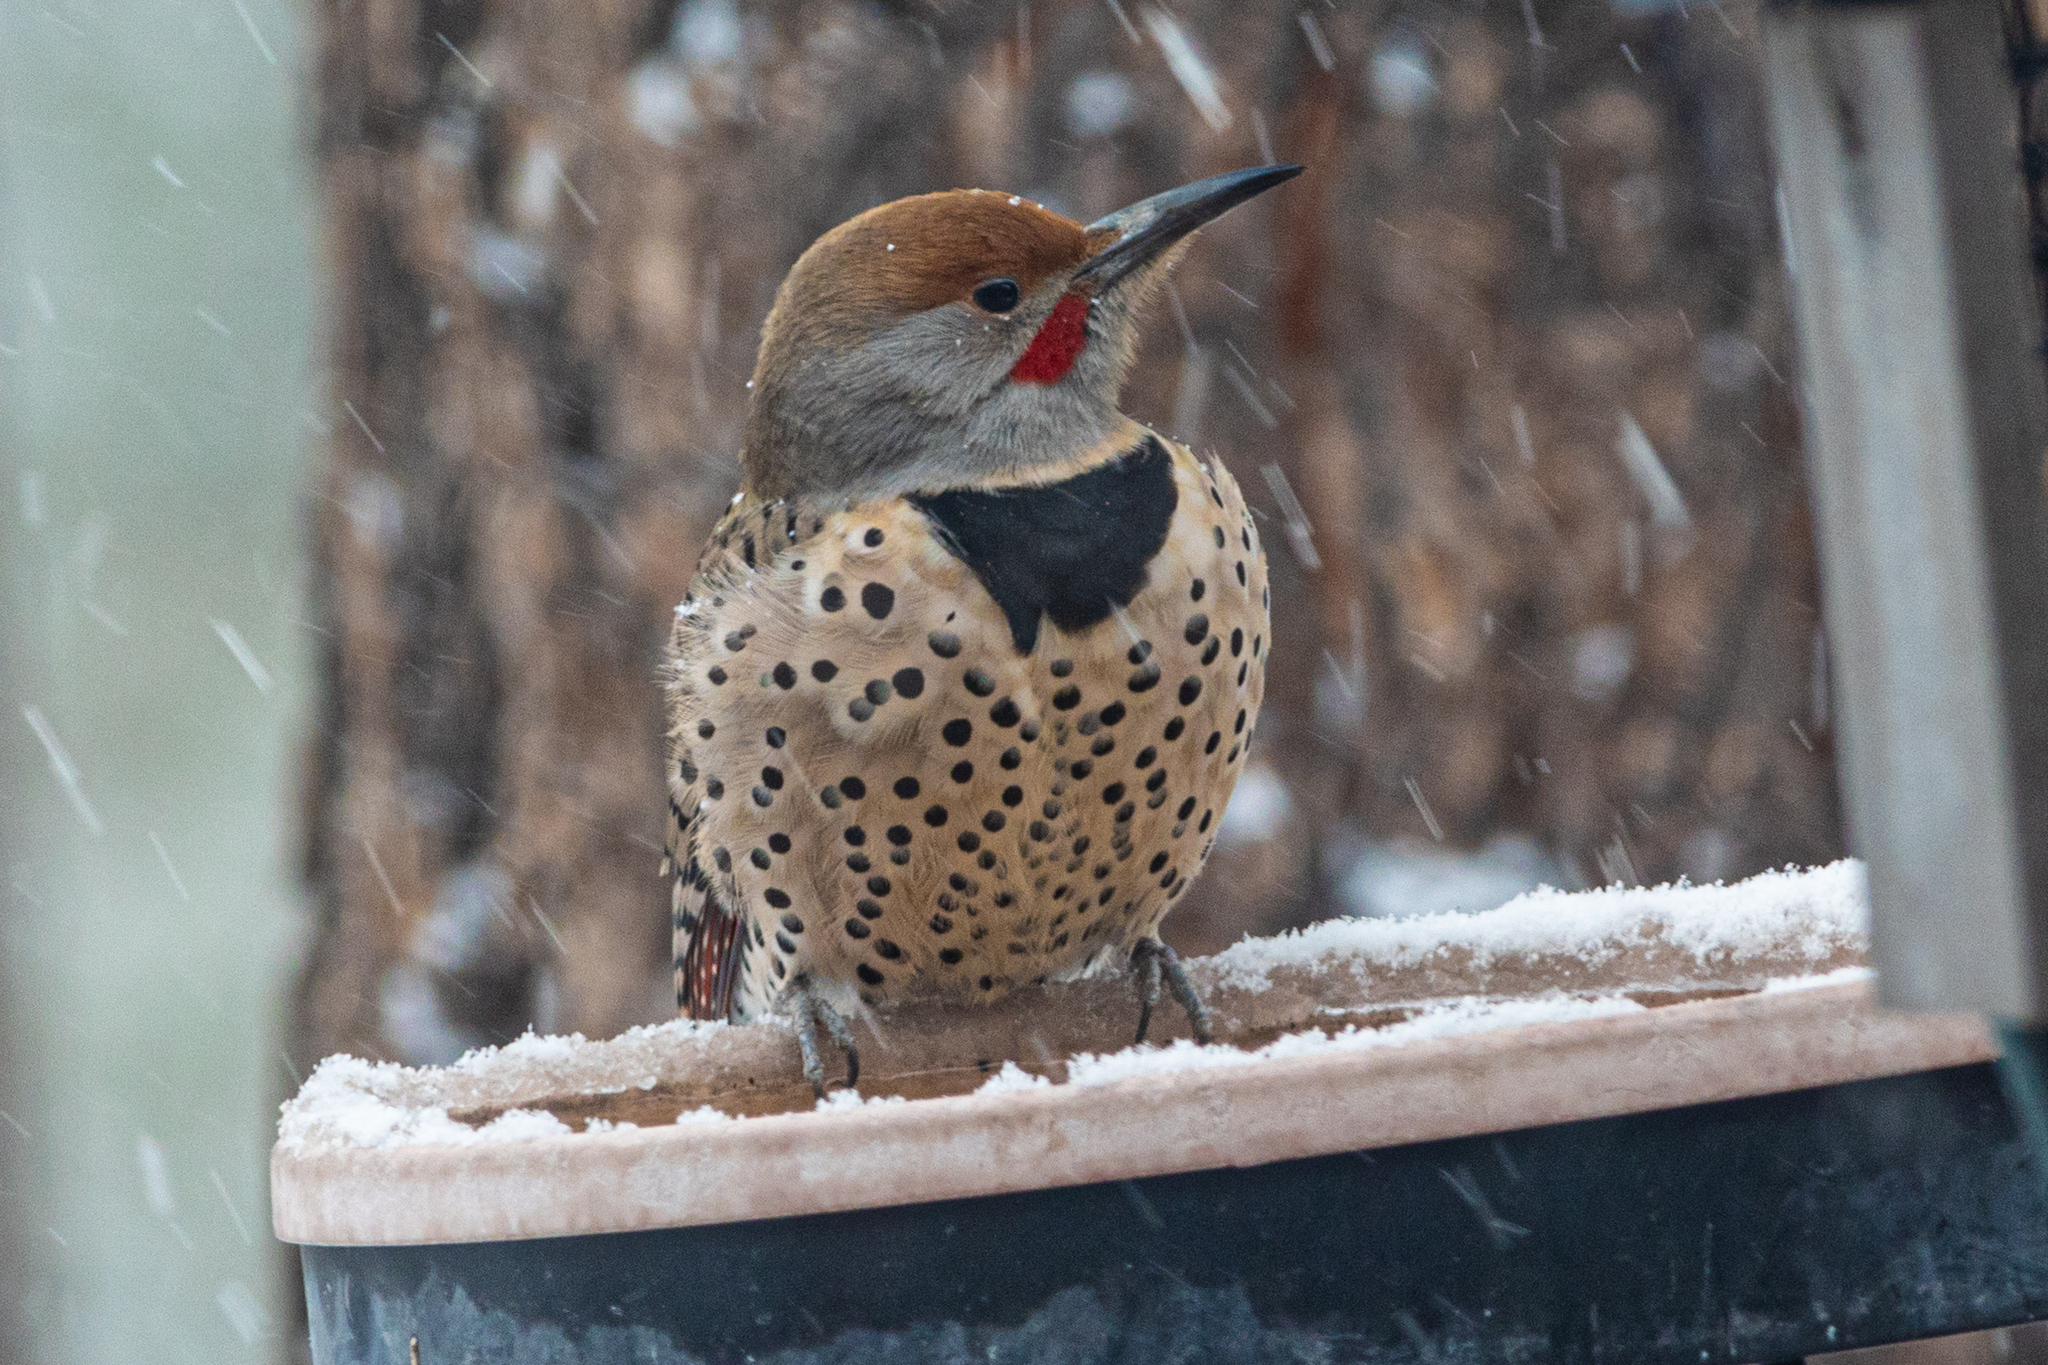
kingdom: Animalia
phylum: Chordata
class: Aves
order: Piciformes
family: Picidae
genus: Colaptes
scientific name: Colaptes auratus
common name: Northern flicker
